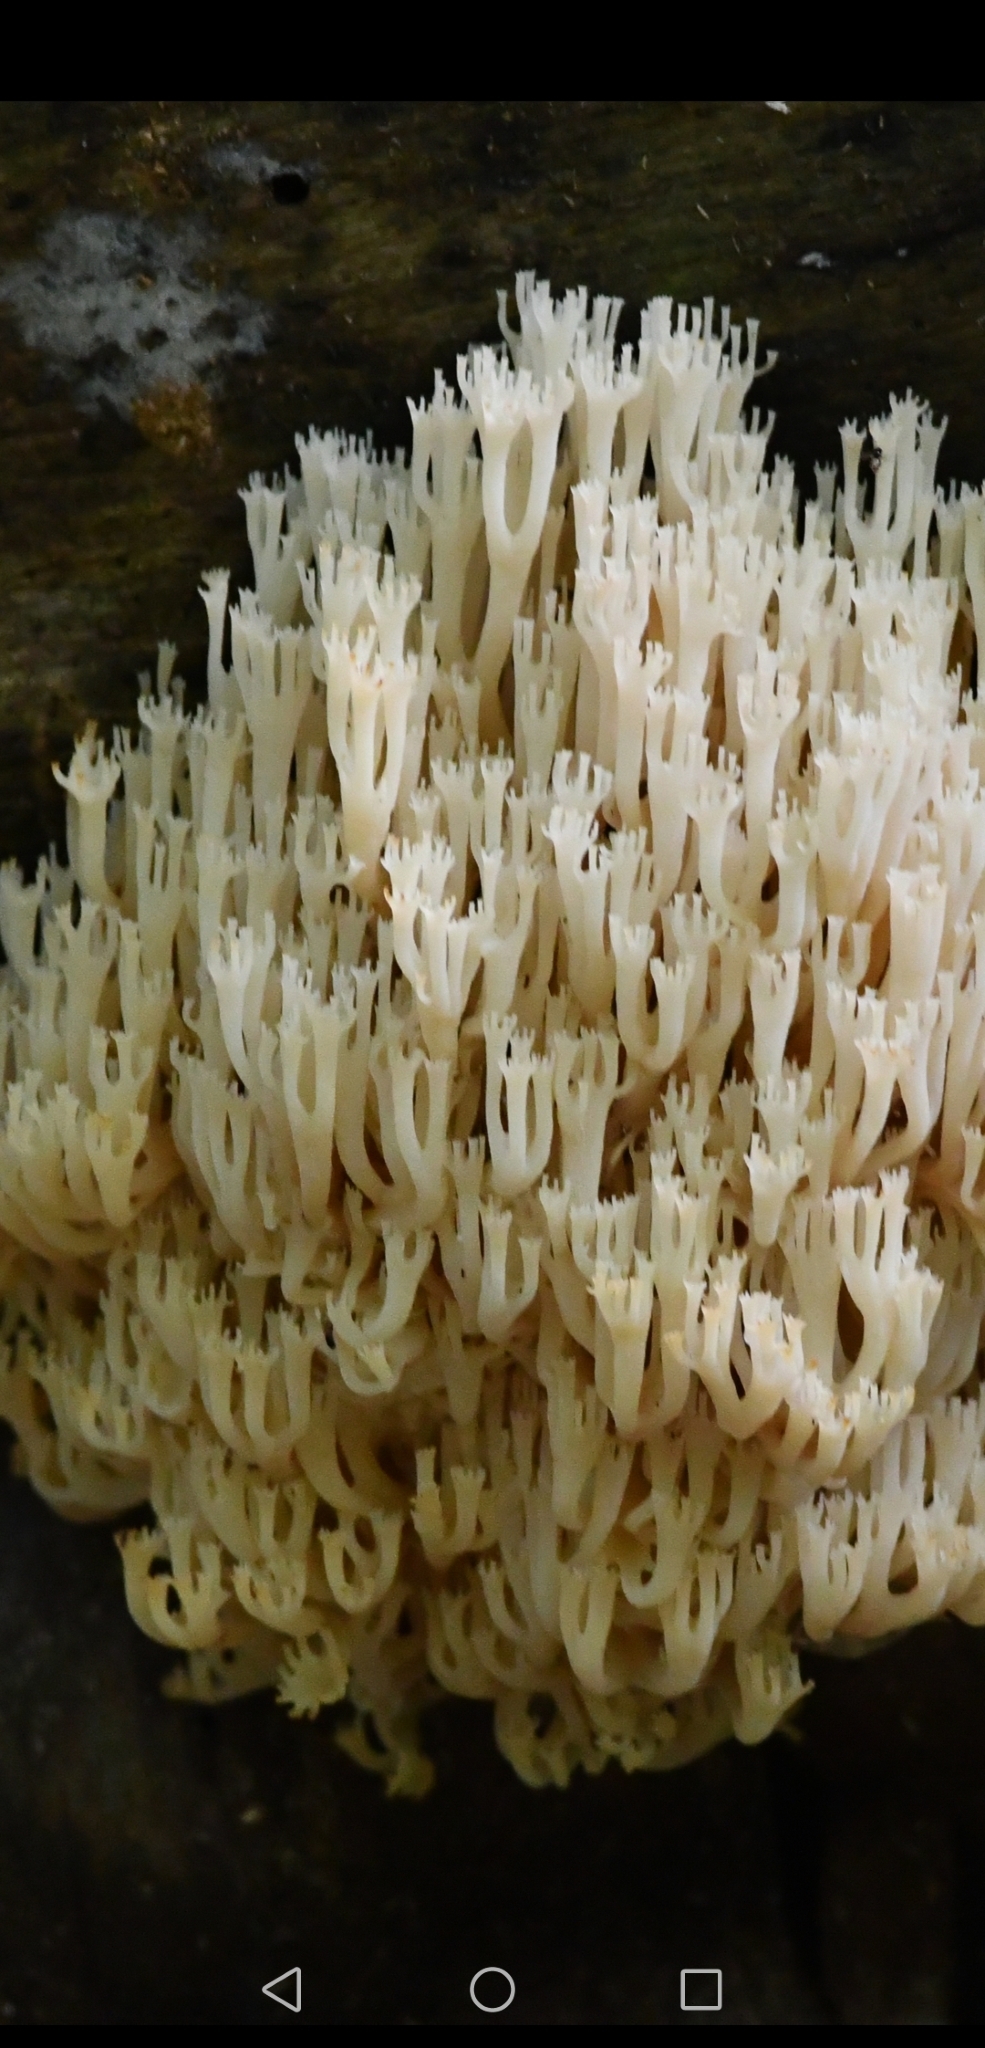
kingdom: Fungi
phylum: Basidiomycota
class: Agaricomycetes
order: Russulales
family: Auriscalpiaceae
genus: Artomyces
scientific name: Artomyces pyxidatus
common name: Crown-tipped coral fungus
